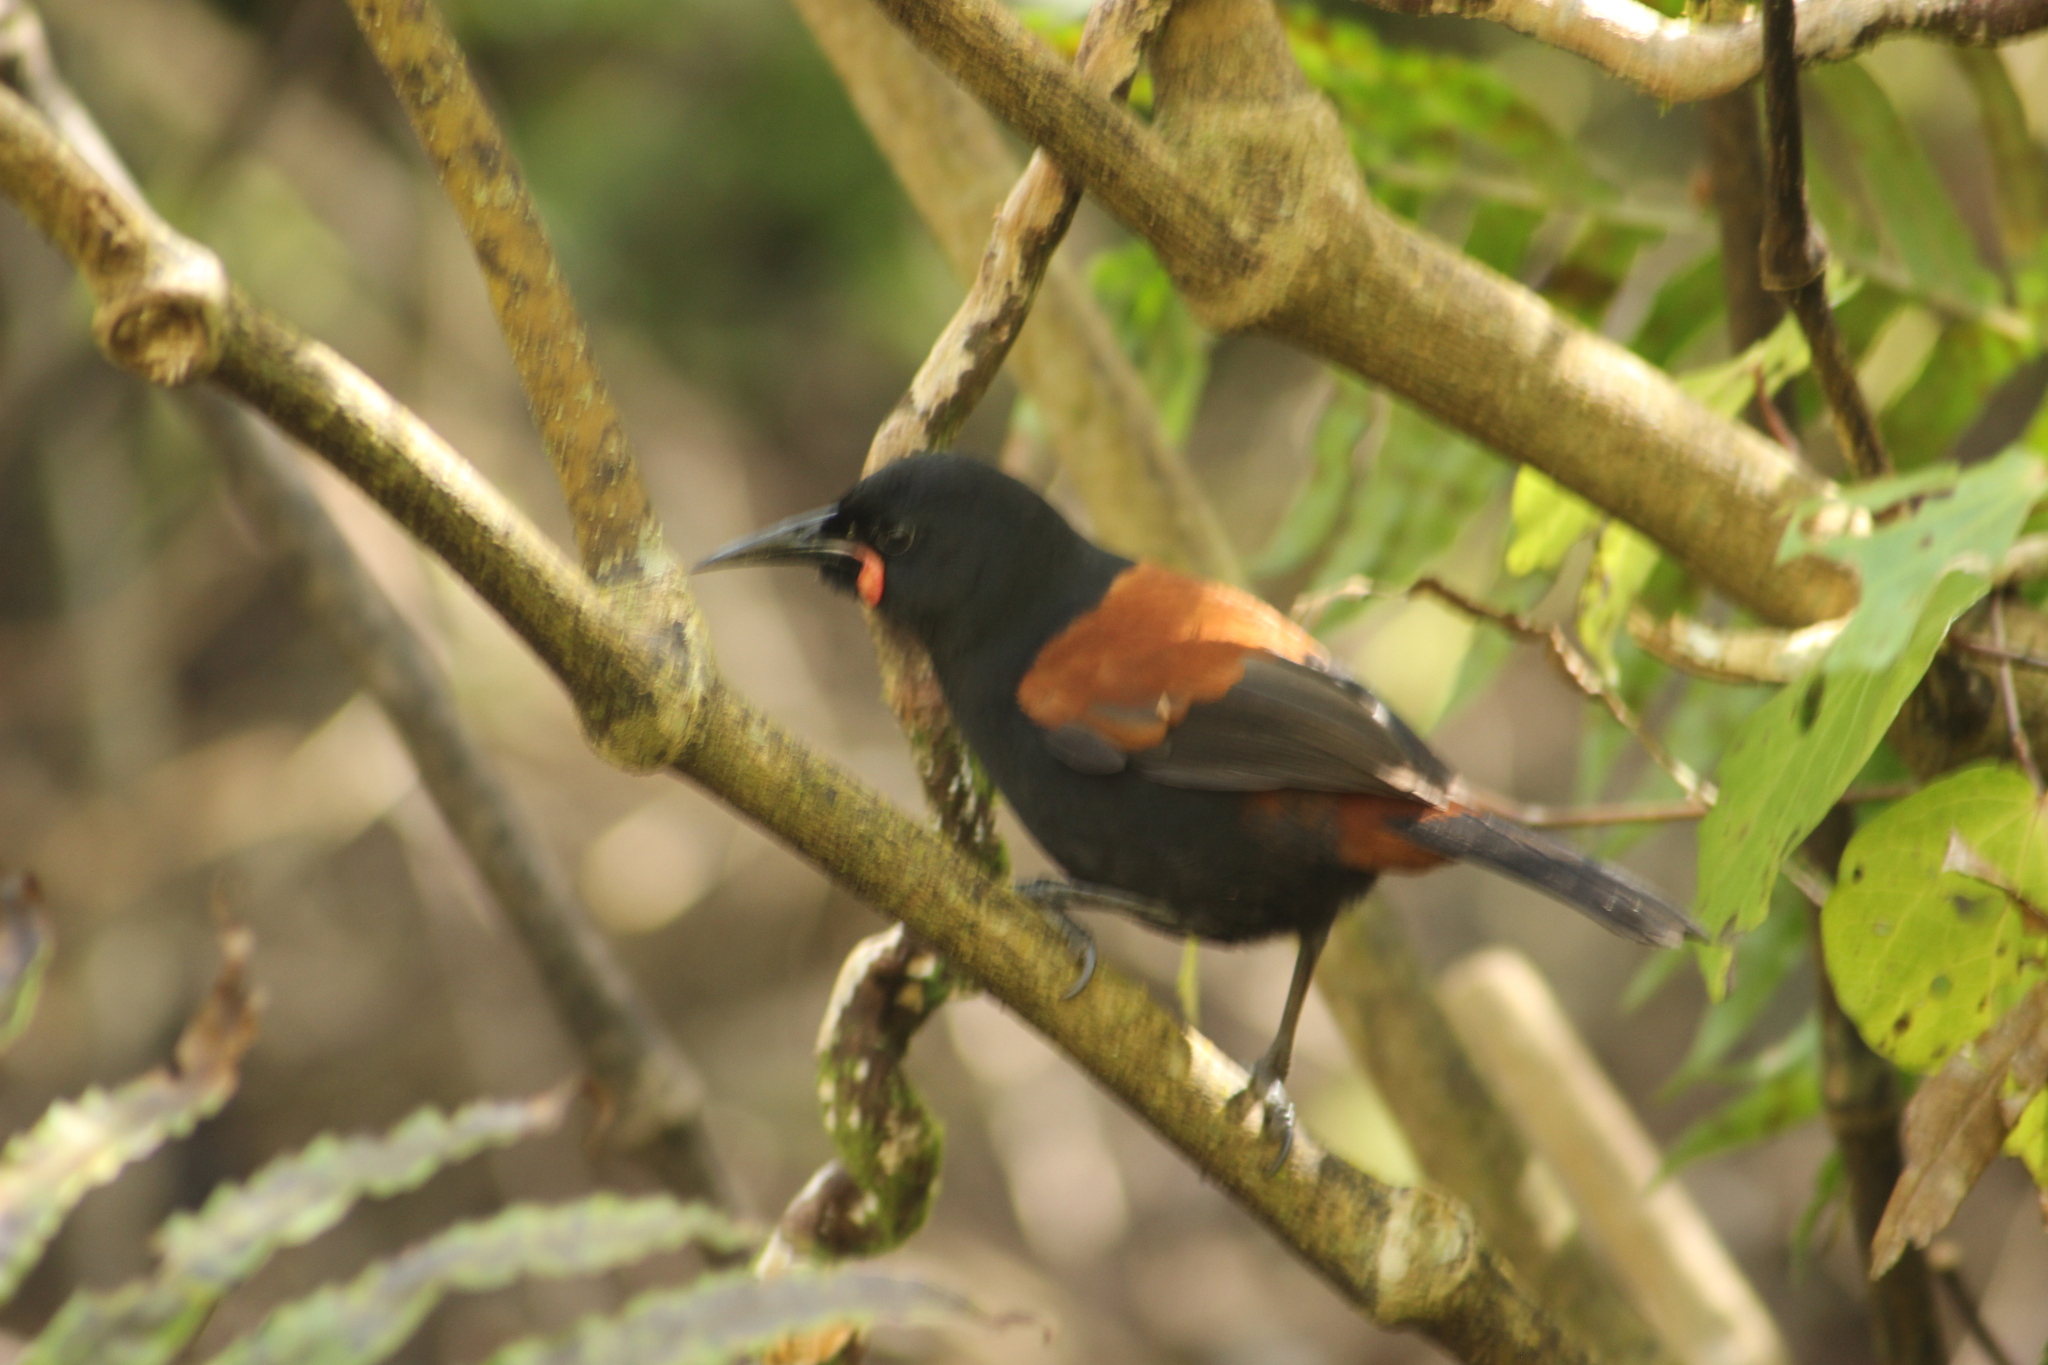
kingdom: Animalia
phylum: Chordata
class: Aves
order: Passeriformes
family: Callaeatidae
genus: Philesturnus
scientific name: Philesturnus carunculatus
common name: South island saddleback
